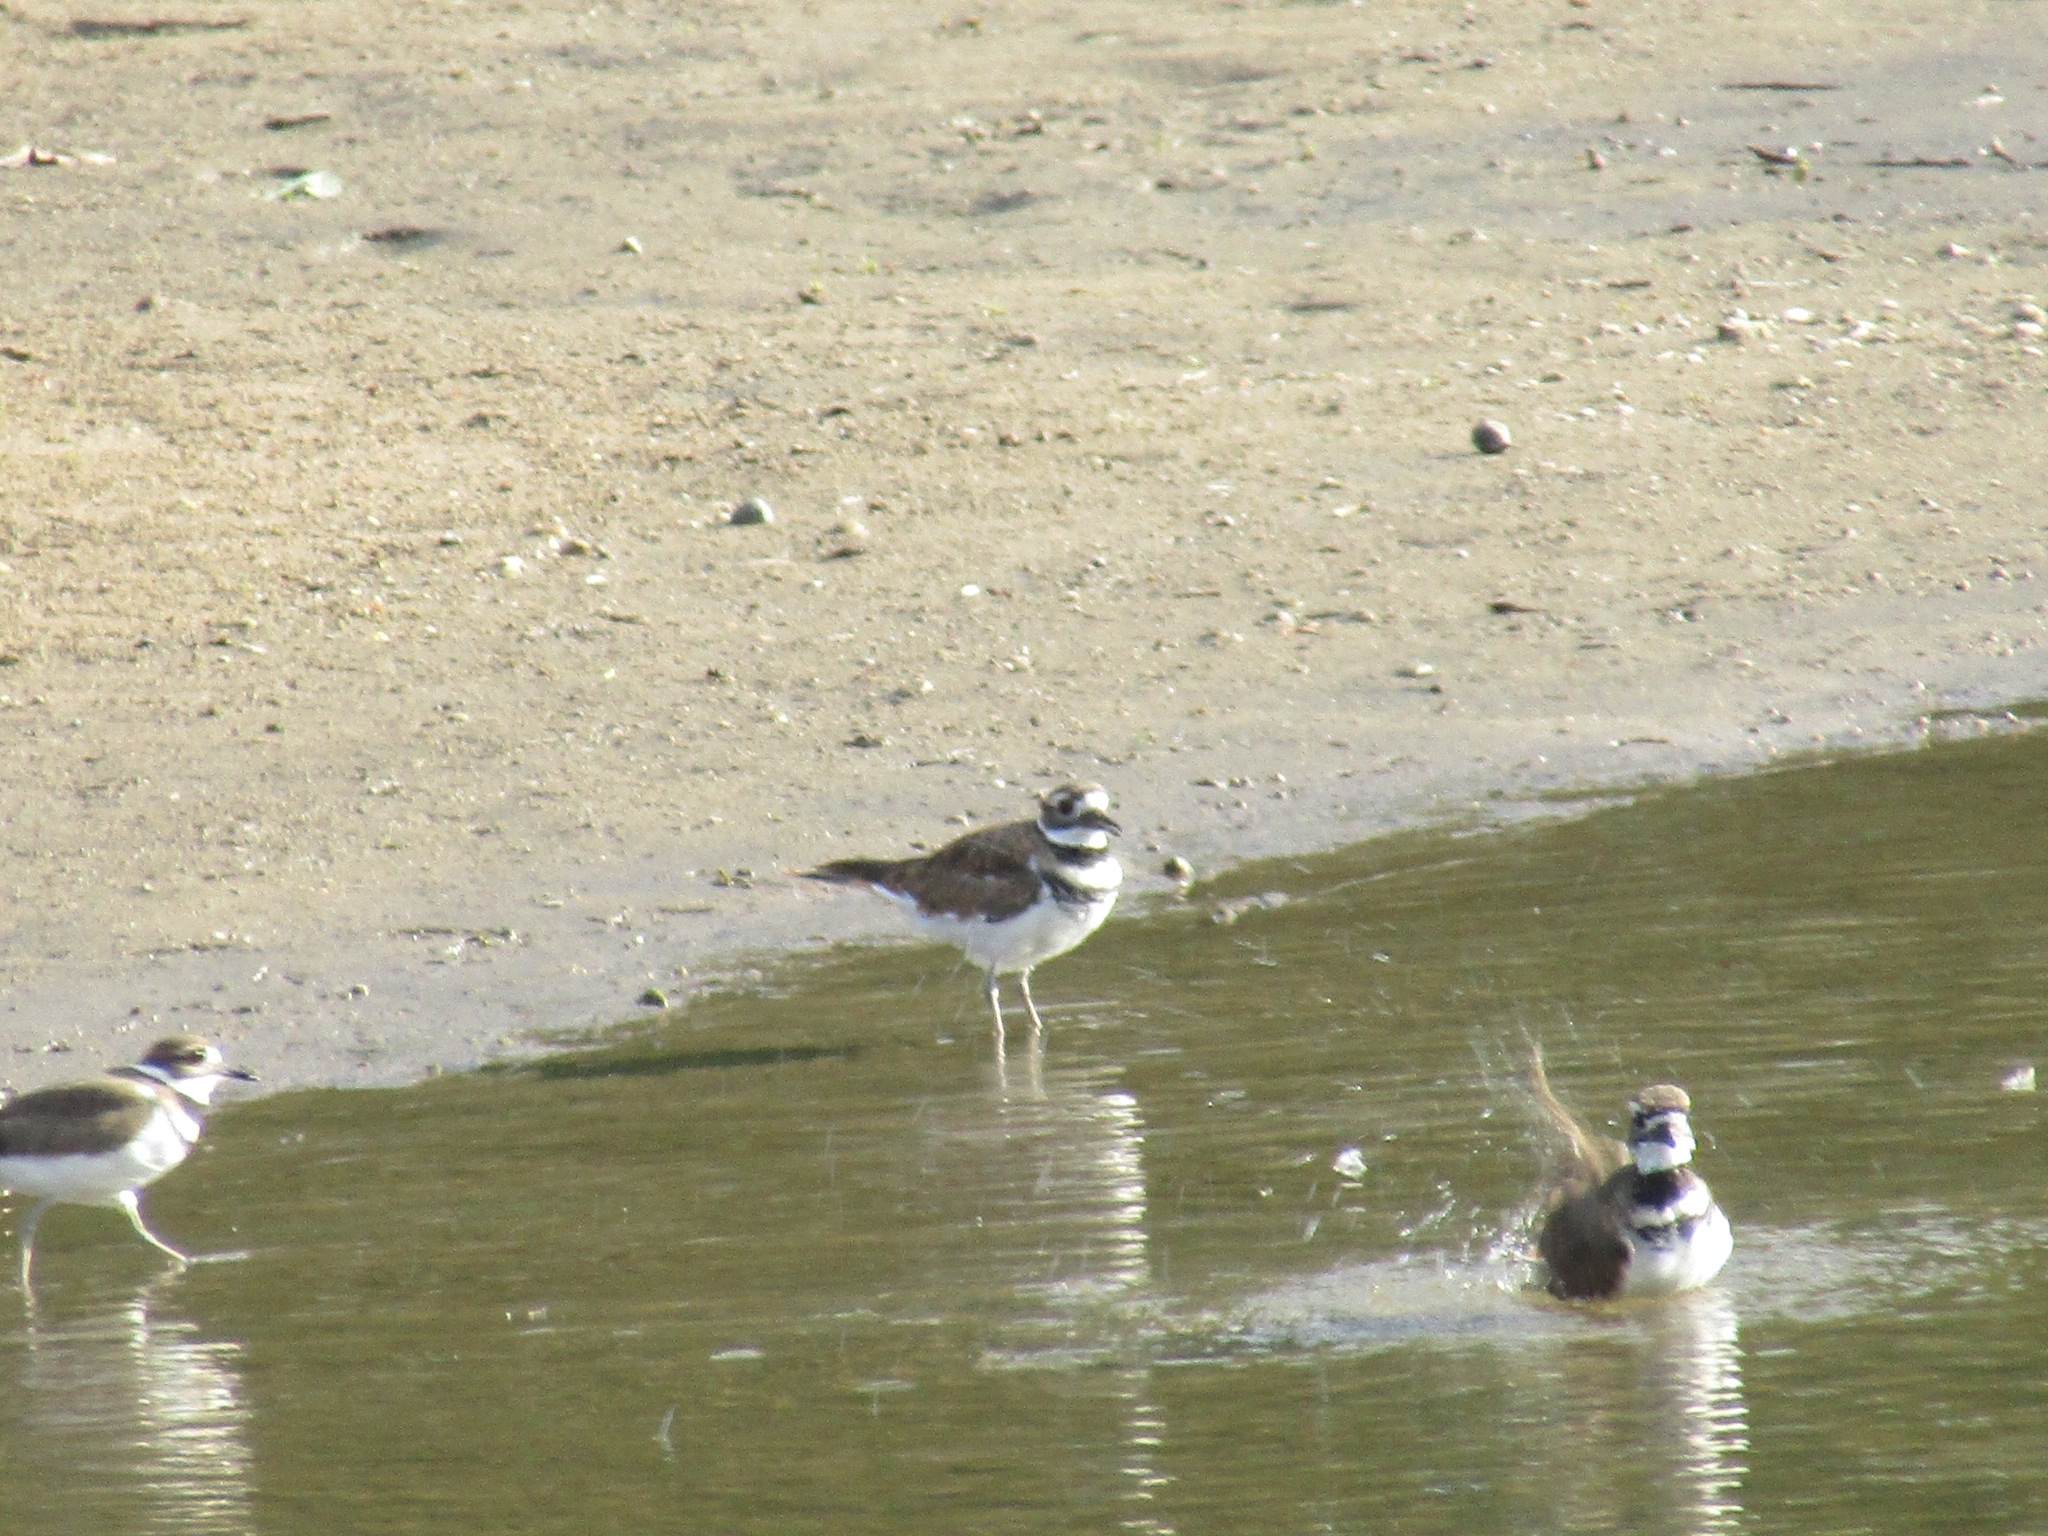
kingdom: Animalia
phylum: Chordata
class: Aves
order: Charadriiformes
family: Charadriidae
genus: Charadrius
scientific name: Charadrius vociferus
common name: Killdeer
